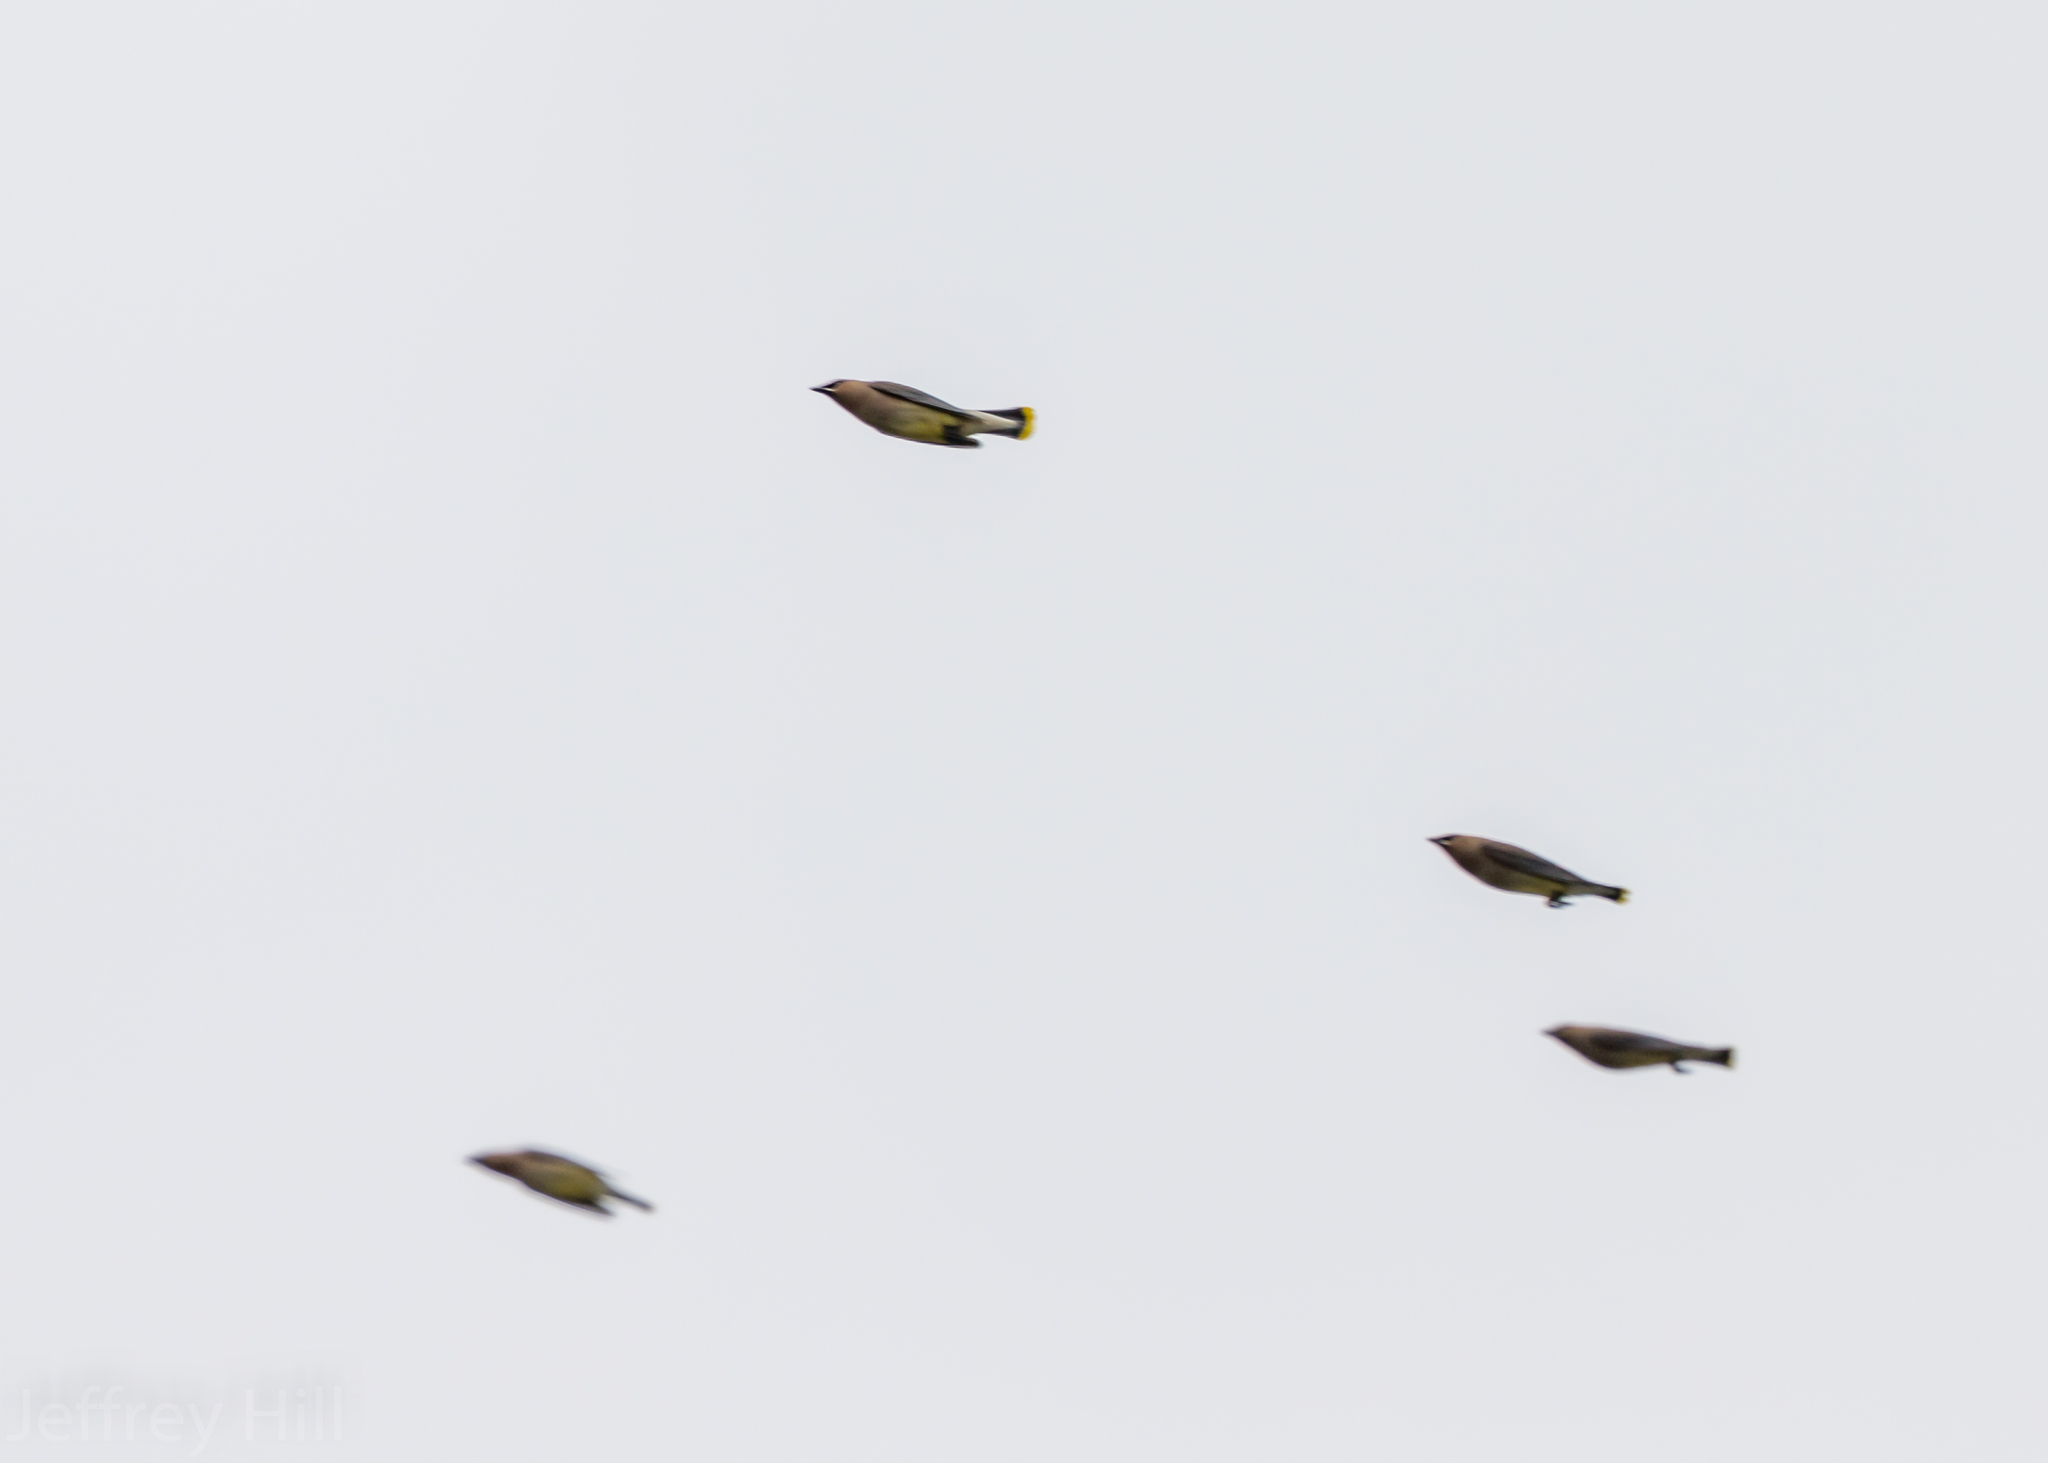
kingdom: Animalia
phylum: Chordata
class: Aves
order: Passeriformes
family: Bombycillidae
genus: Bombycilla
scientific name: Bombycilla cedrorum
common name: Cedar waxwing
